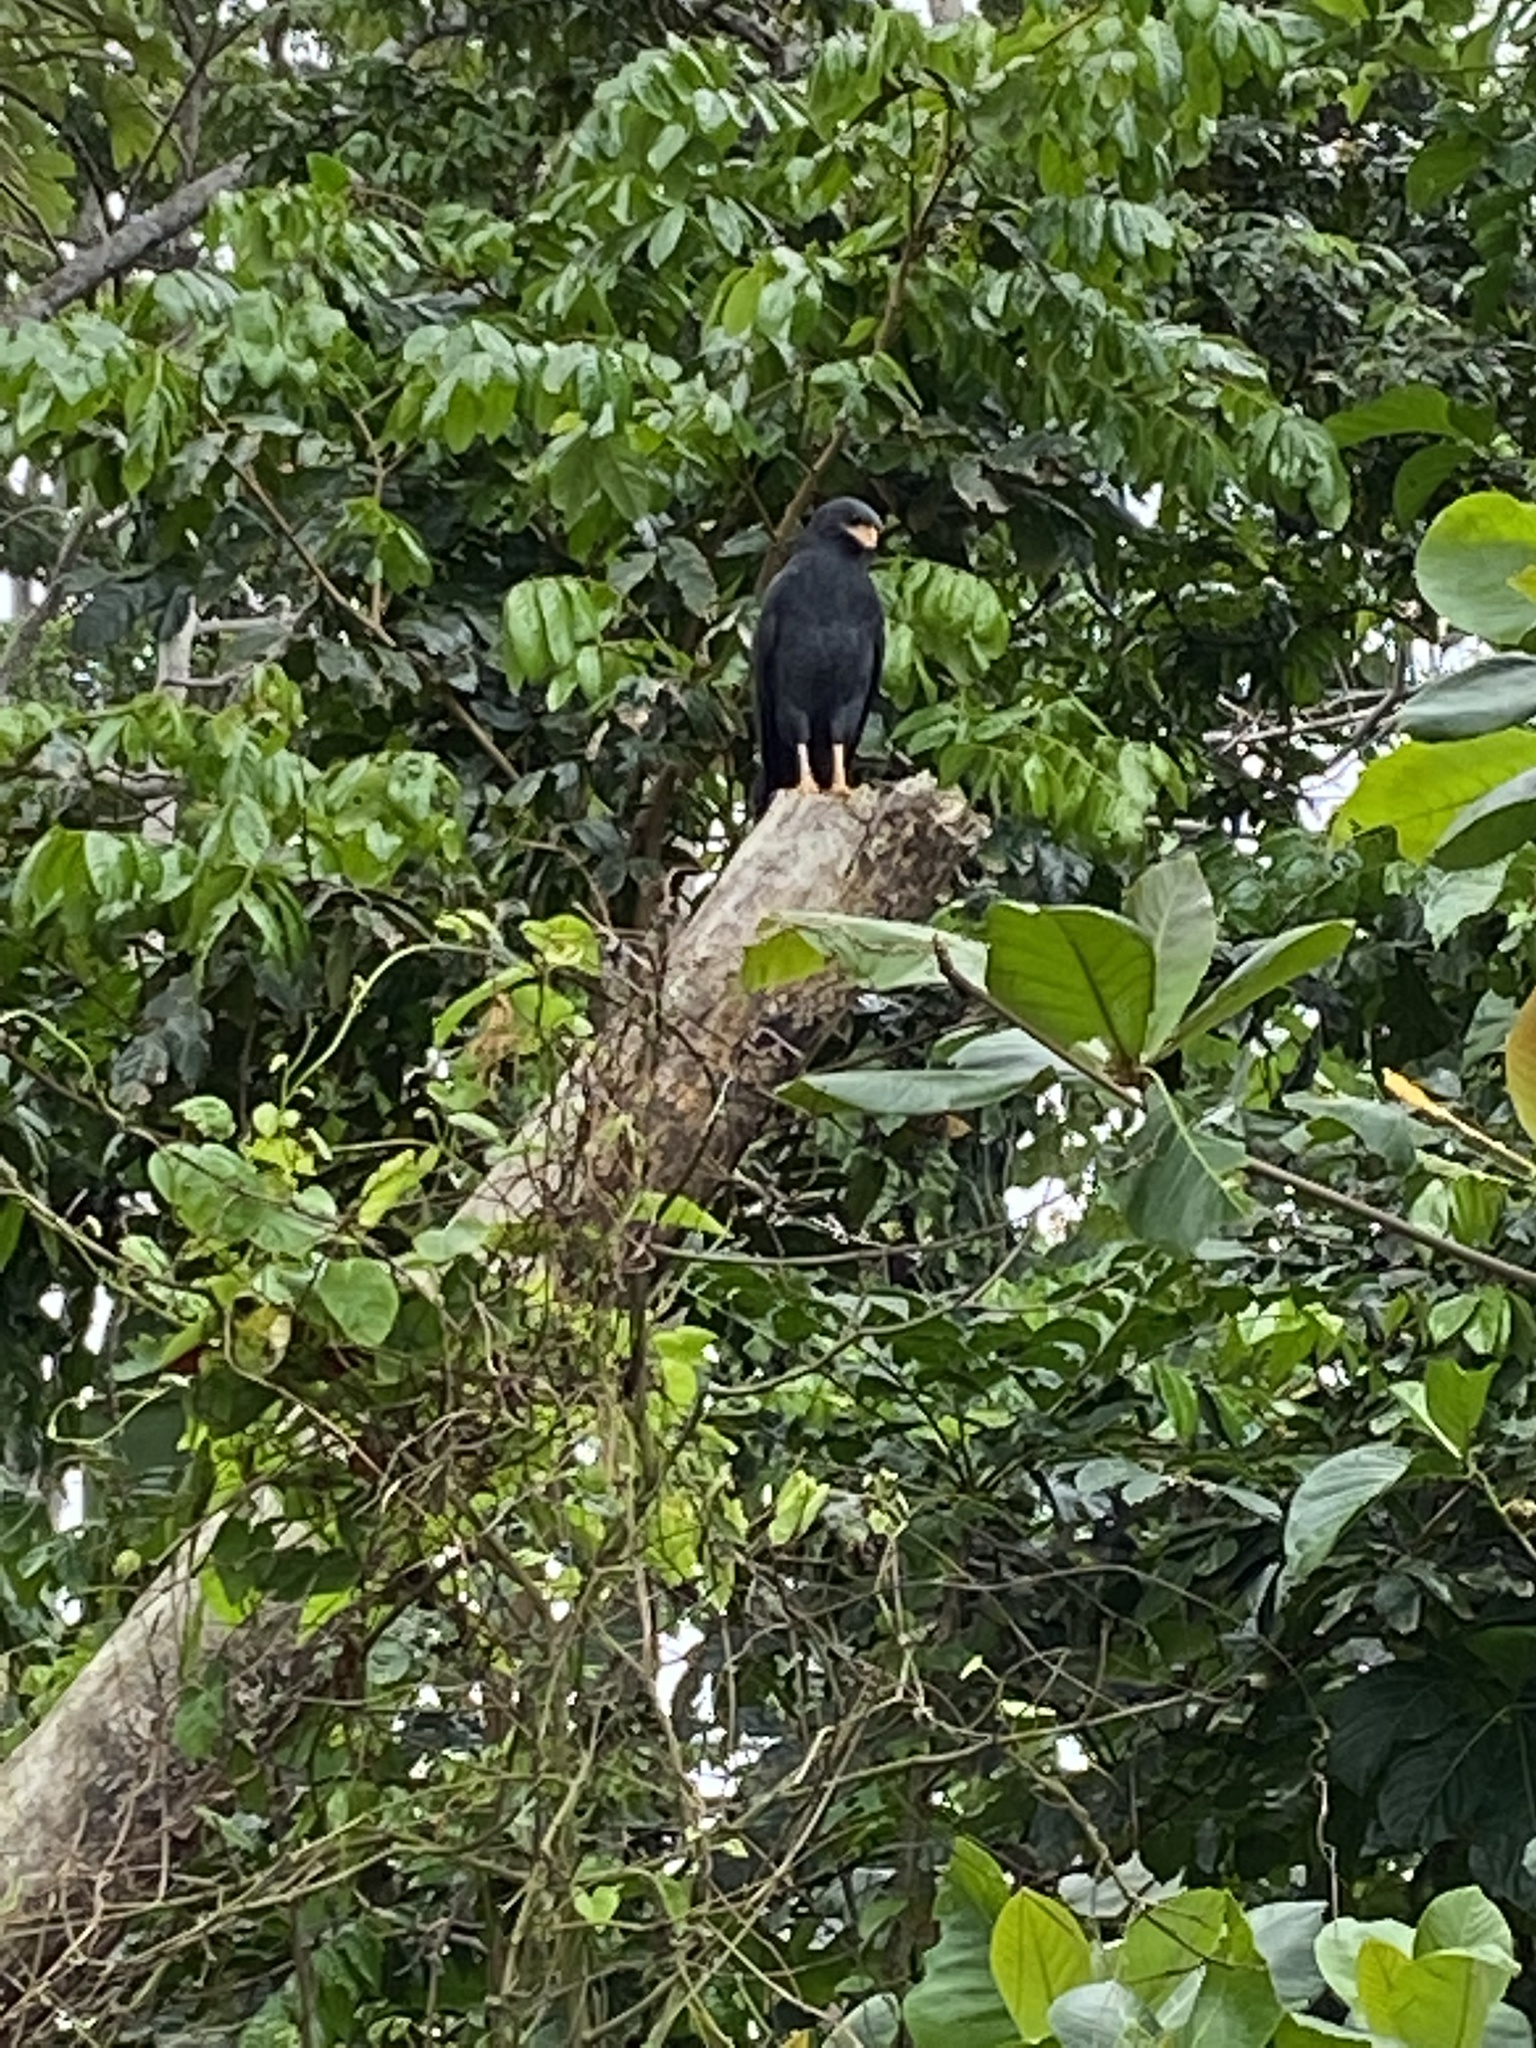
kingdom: Animalia
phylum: Chordata
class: Aves
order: Accipitriformes
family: Accipitridae
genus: Buteogallus
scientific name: Buteogallus anthracinus
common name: Common black hawk
